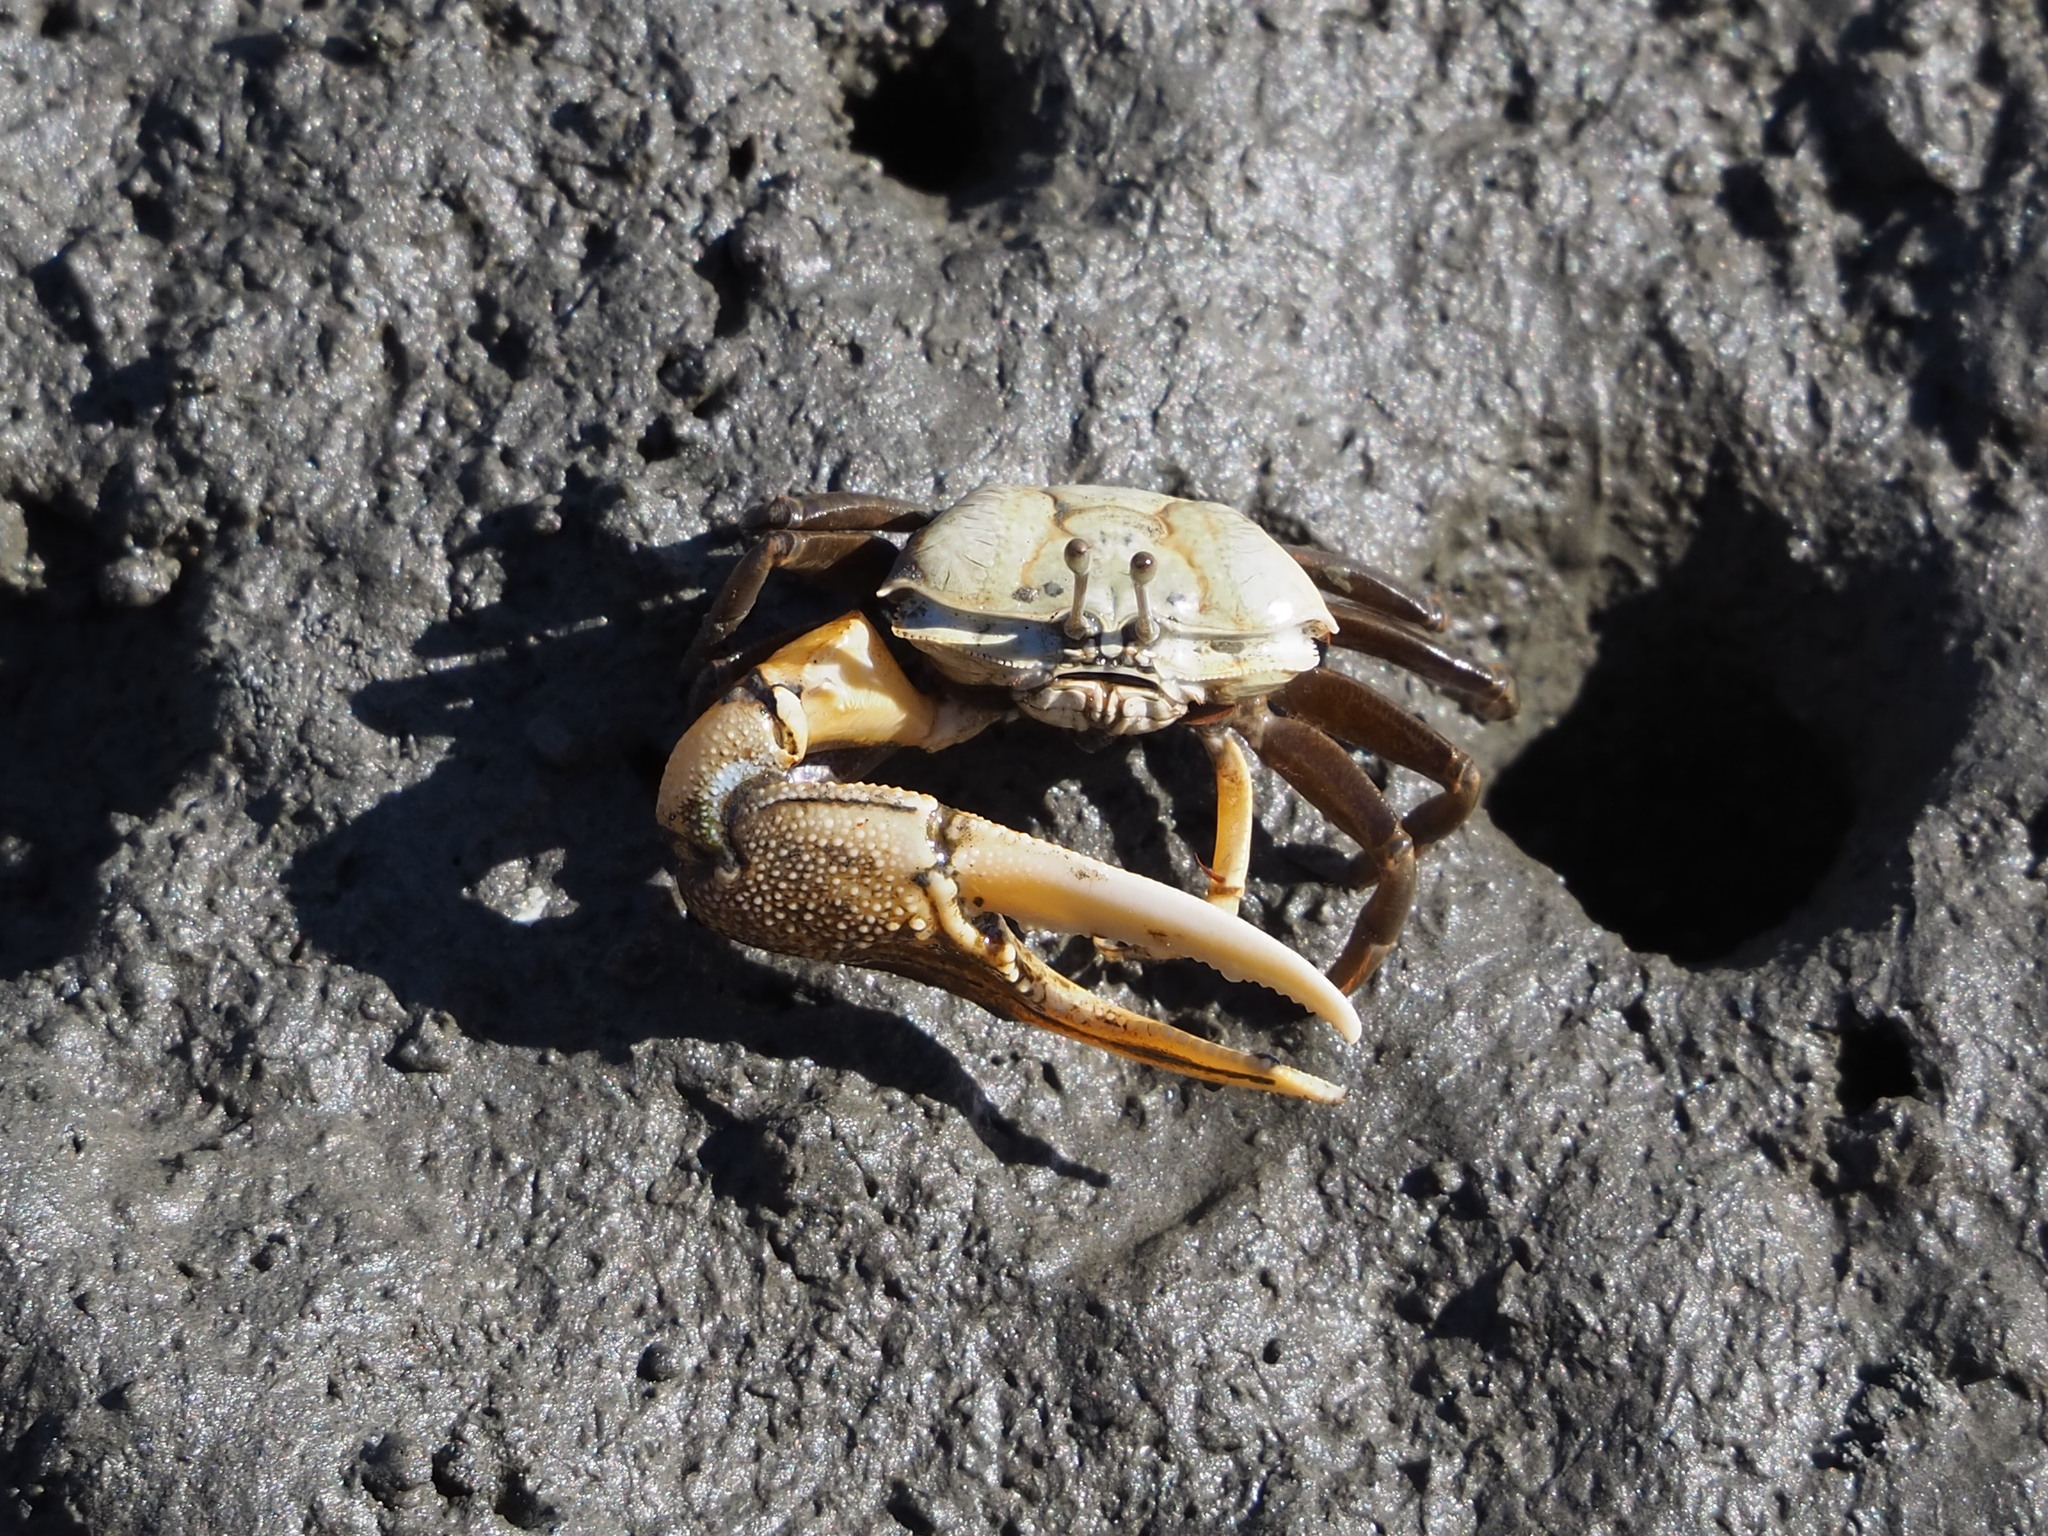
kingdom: Animalia
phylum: Arthropoda
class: Malacostraca
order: Decapoda
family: Ocypodidae
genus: Gelasimus
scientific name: Gelasimus borealis
